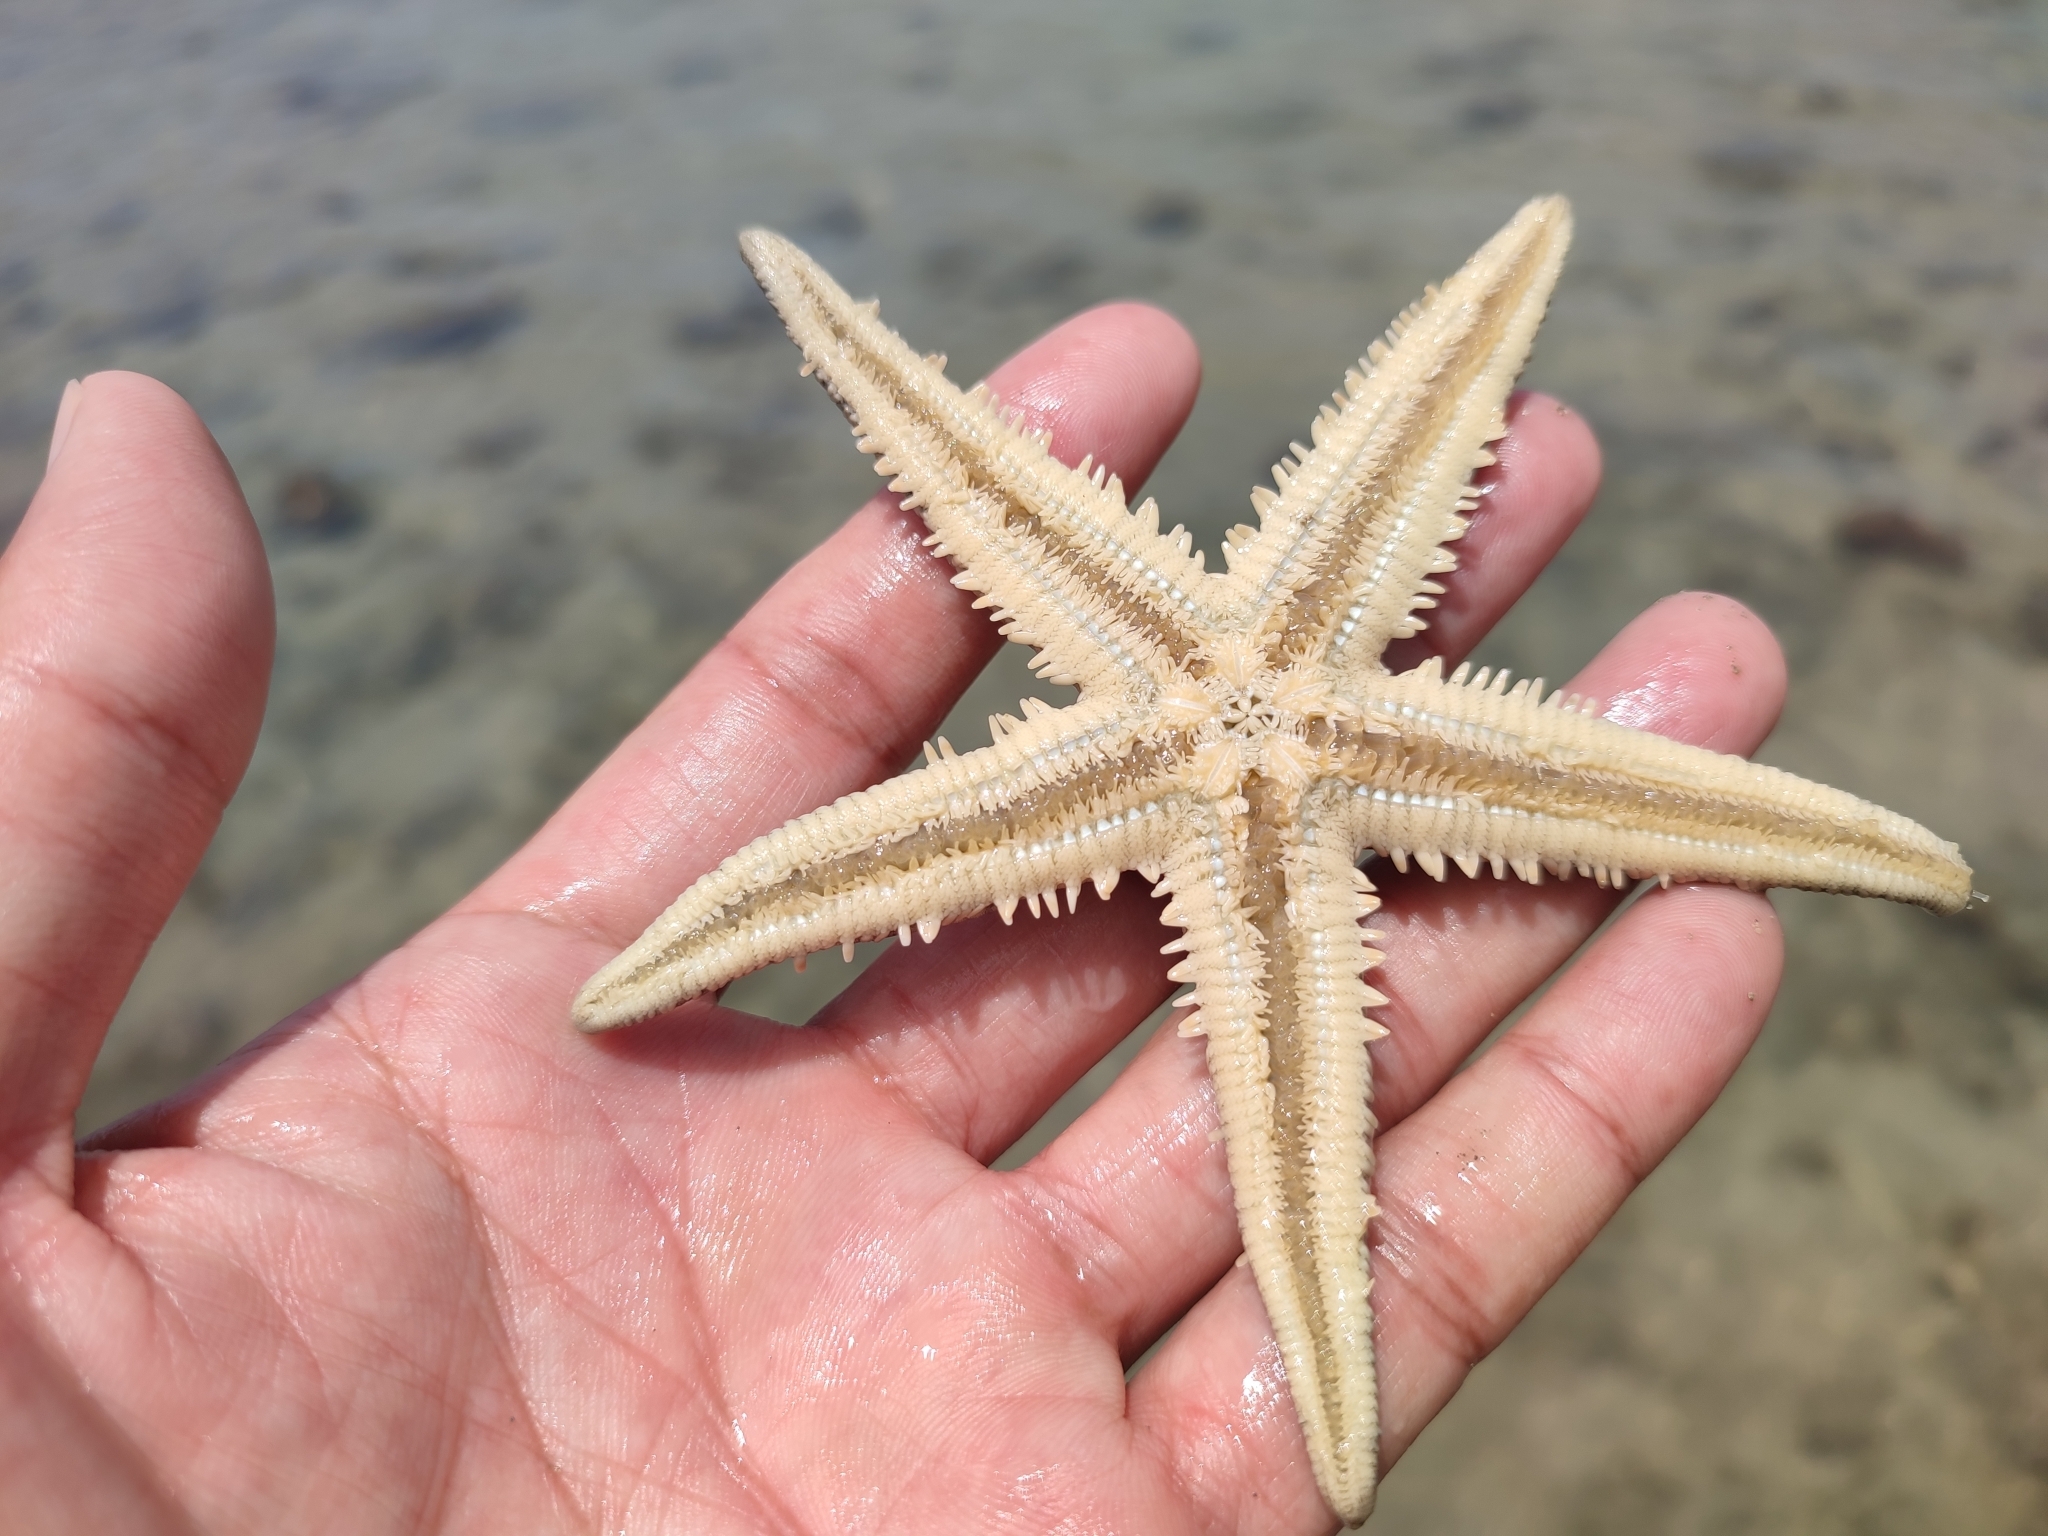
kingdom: Animalia
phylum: Echinodermata
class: Asteroidea
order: Valvatida
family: Archasteridae
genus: Archaster
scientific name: Archaster typicus
